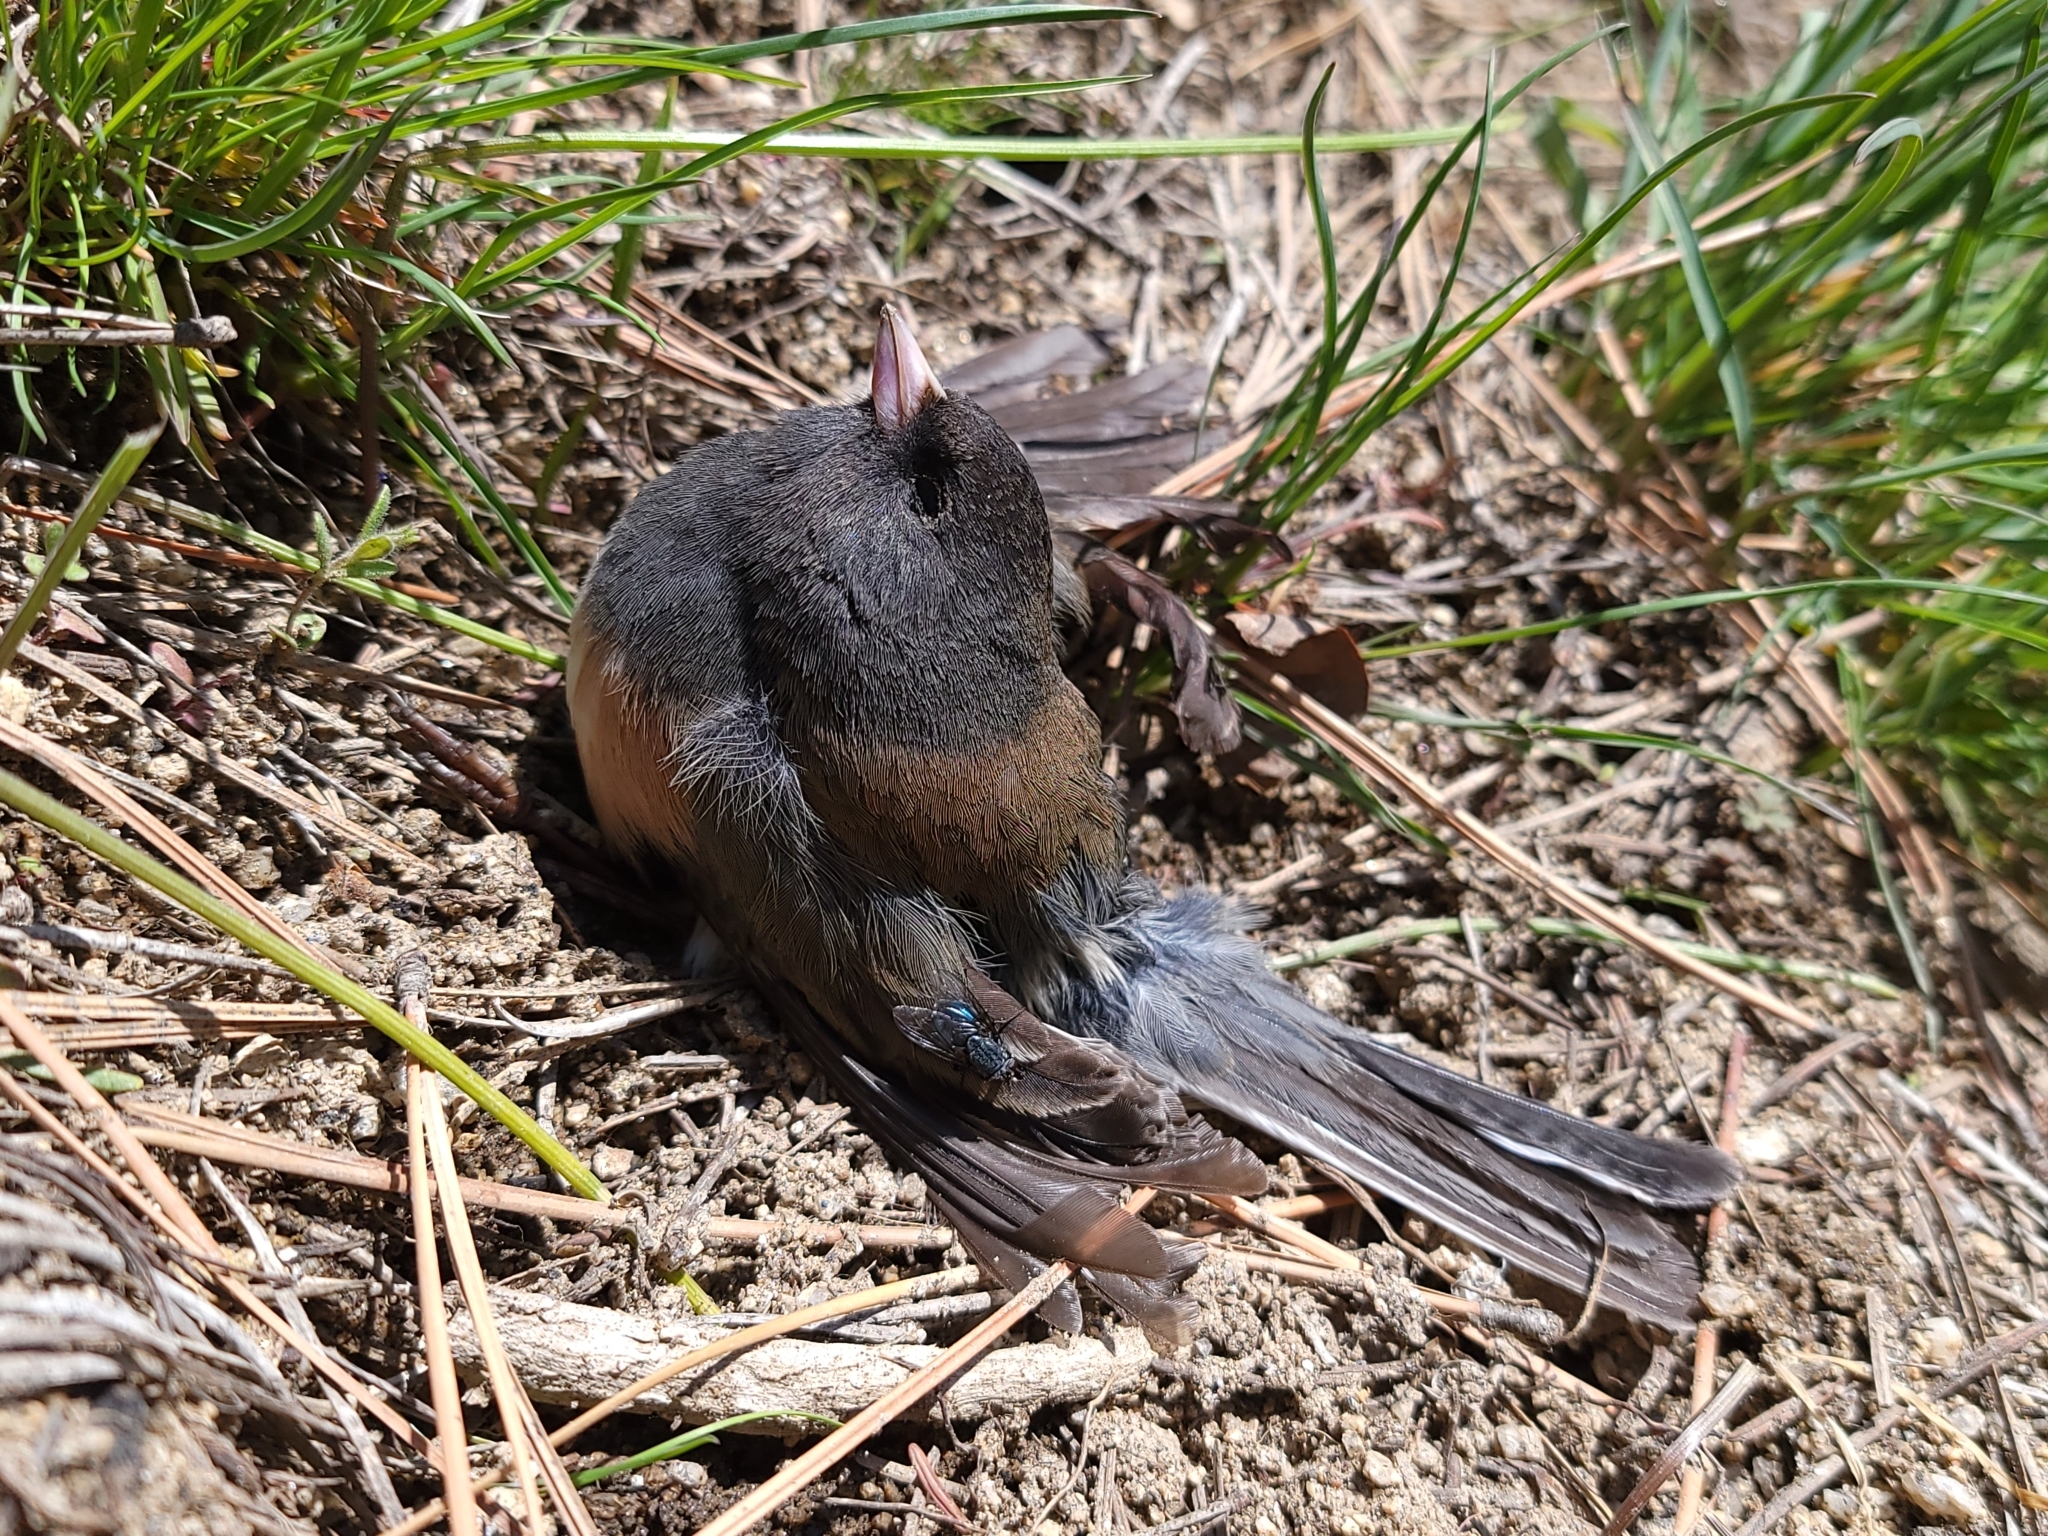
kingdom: Animalia
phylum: Chordata
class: Aves
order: Passeriformes
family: Passerellidae
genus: Junco
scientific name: Junco hyemalis
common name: Dark-eyed junco
